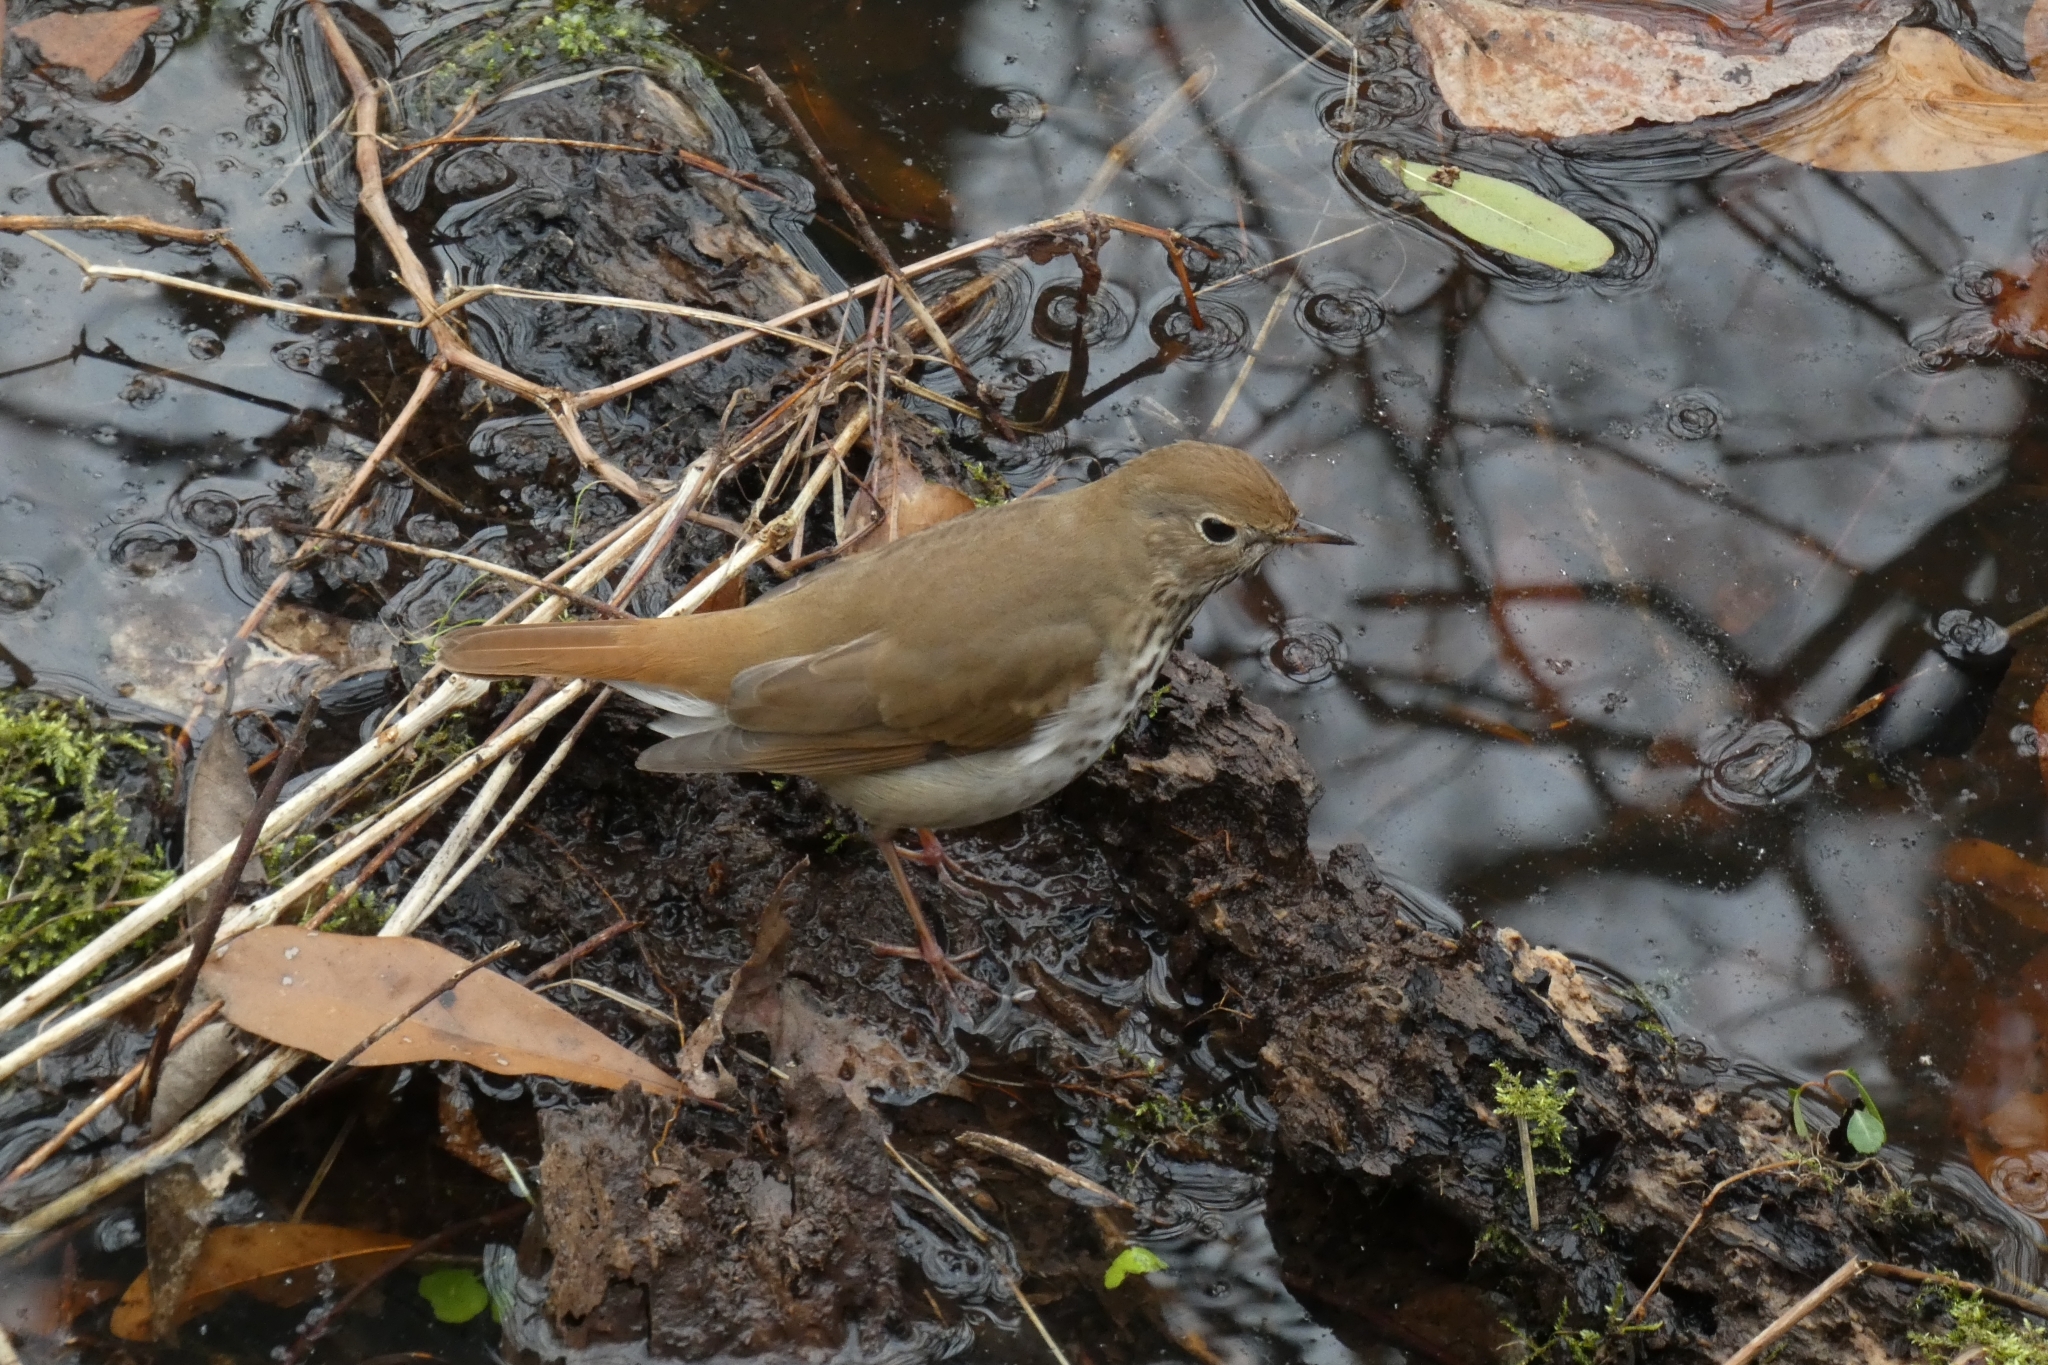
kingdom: Animalia
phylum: Chordata
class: Aves
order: Passeriformes
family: Turdidae
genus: Catharus
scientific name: Catharus guttatus
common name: Hermit thrush
